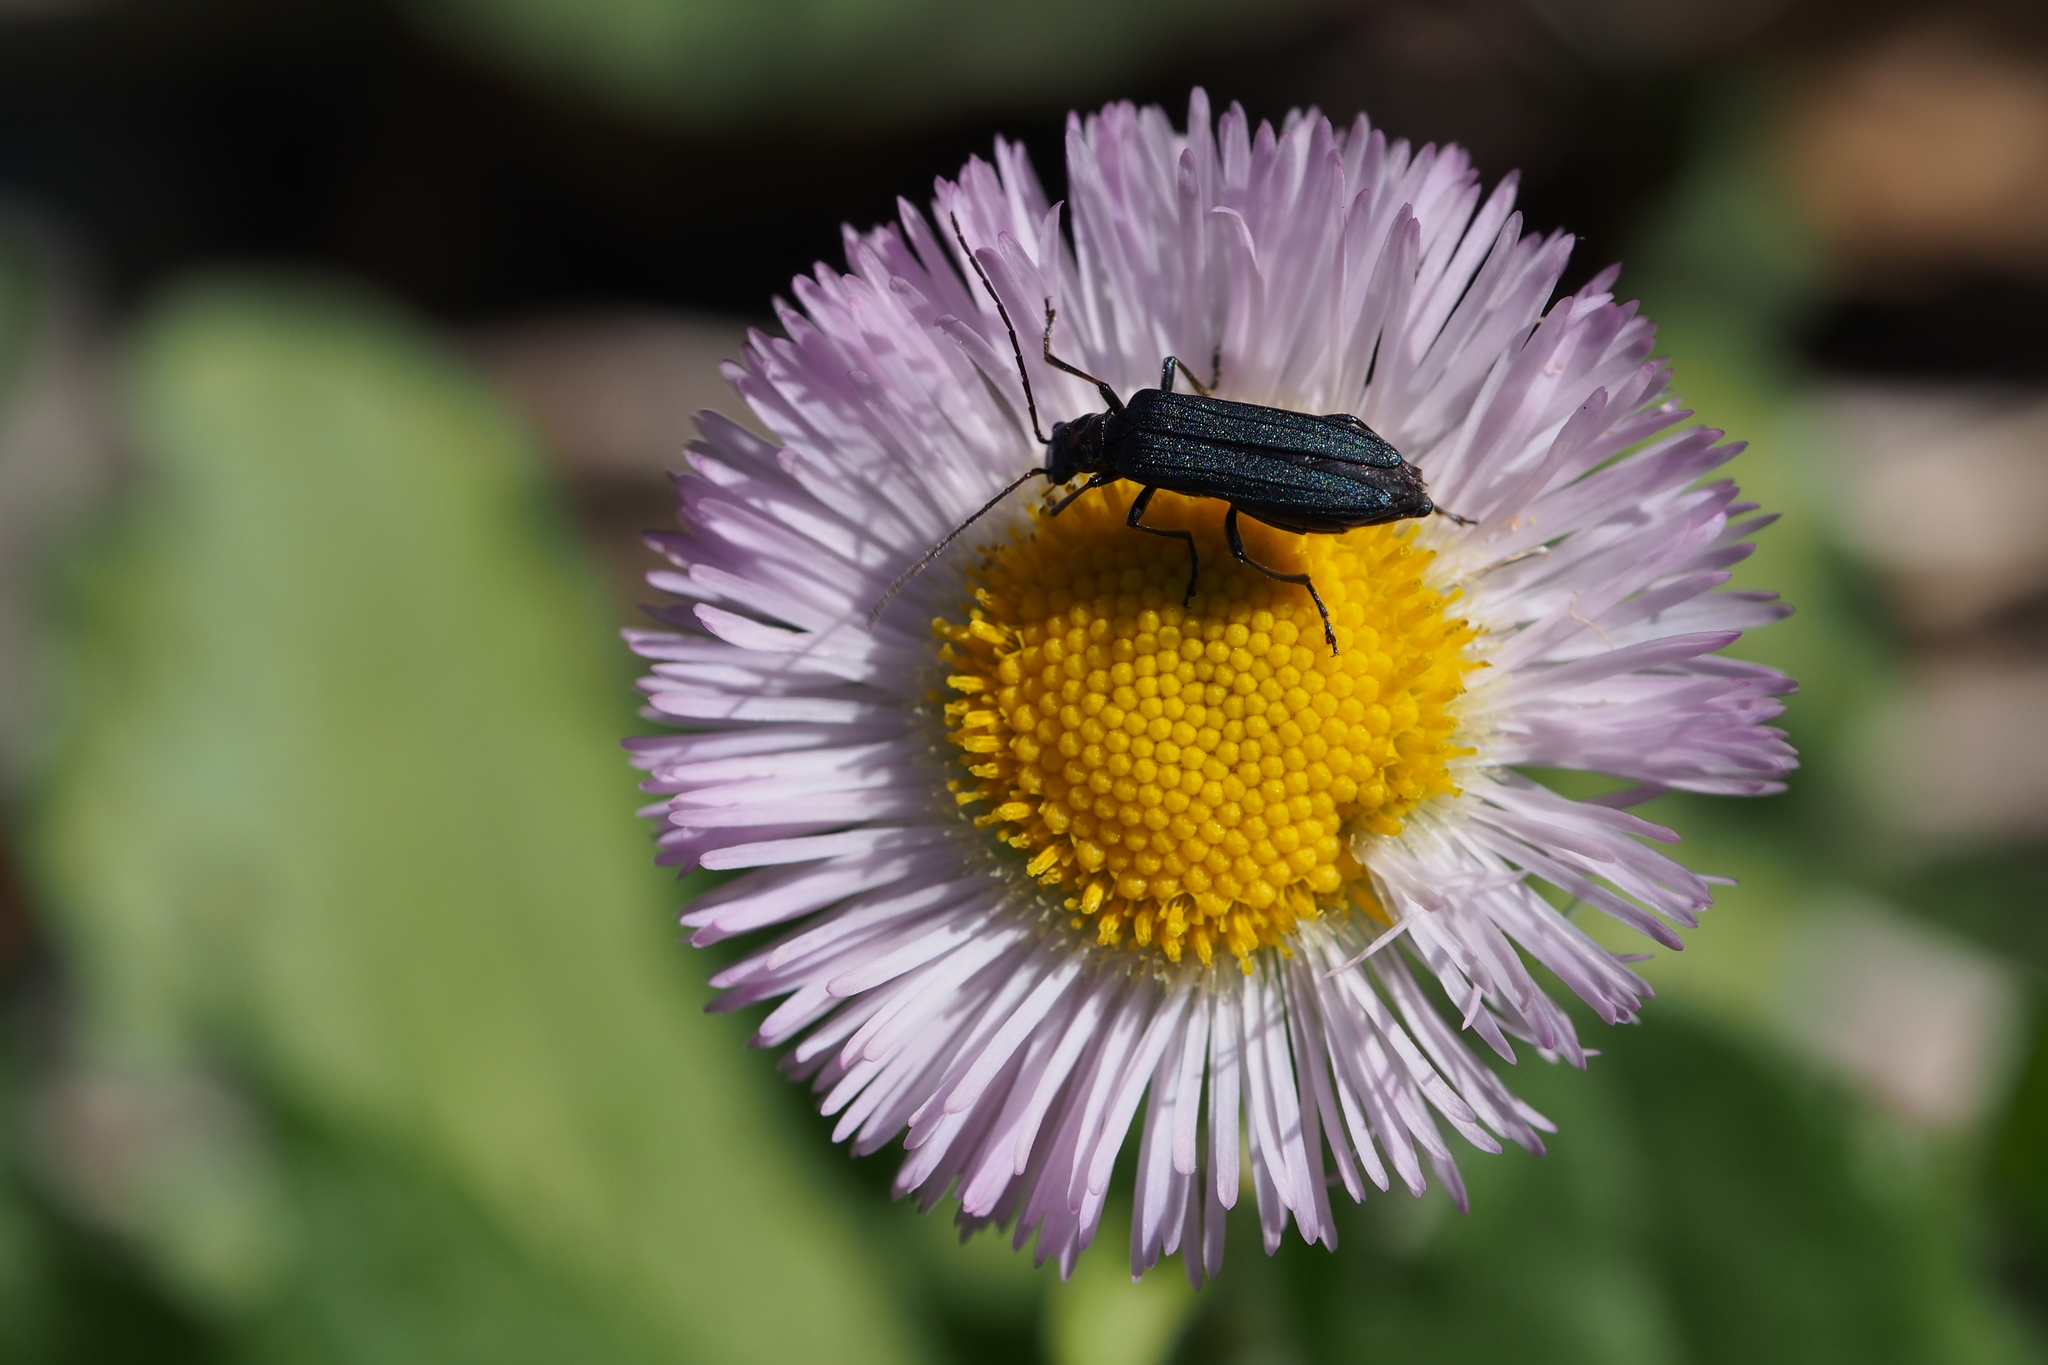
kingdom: Animalia
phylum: Arthropoda
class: Insecta
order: Coleoptera
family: Oedemeridae
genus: Oedemera
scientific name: Oedemera
